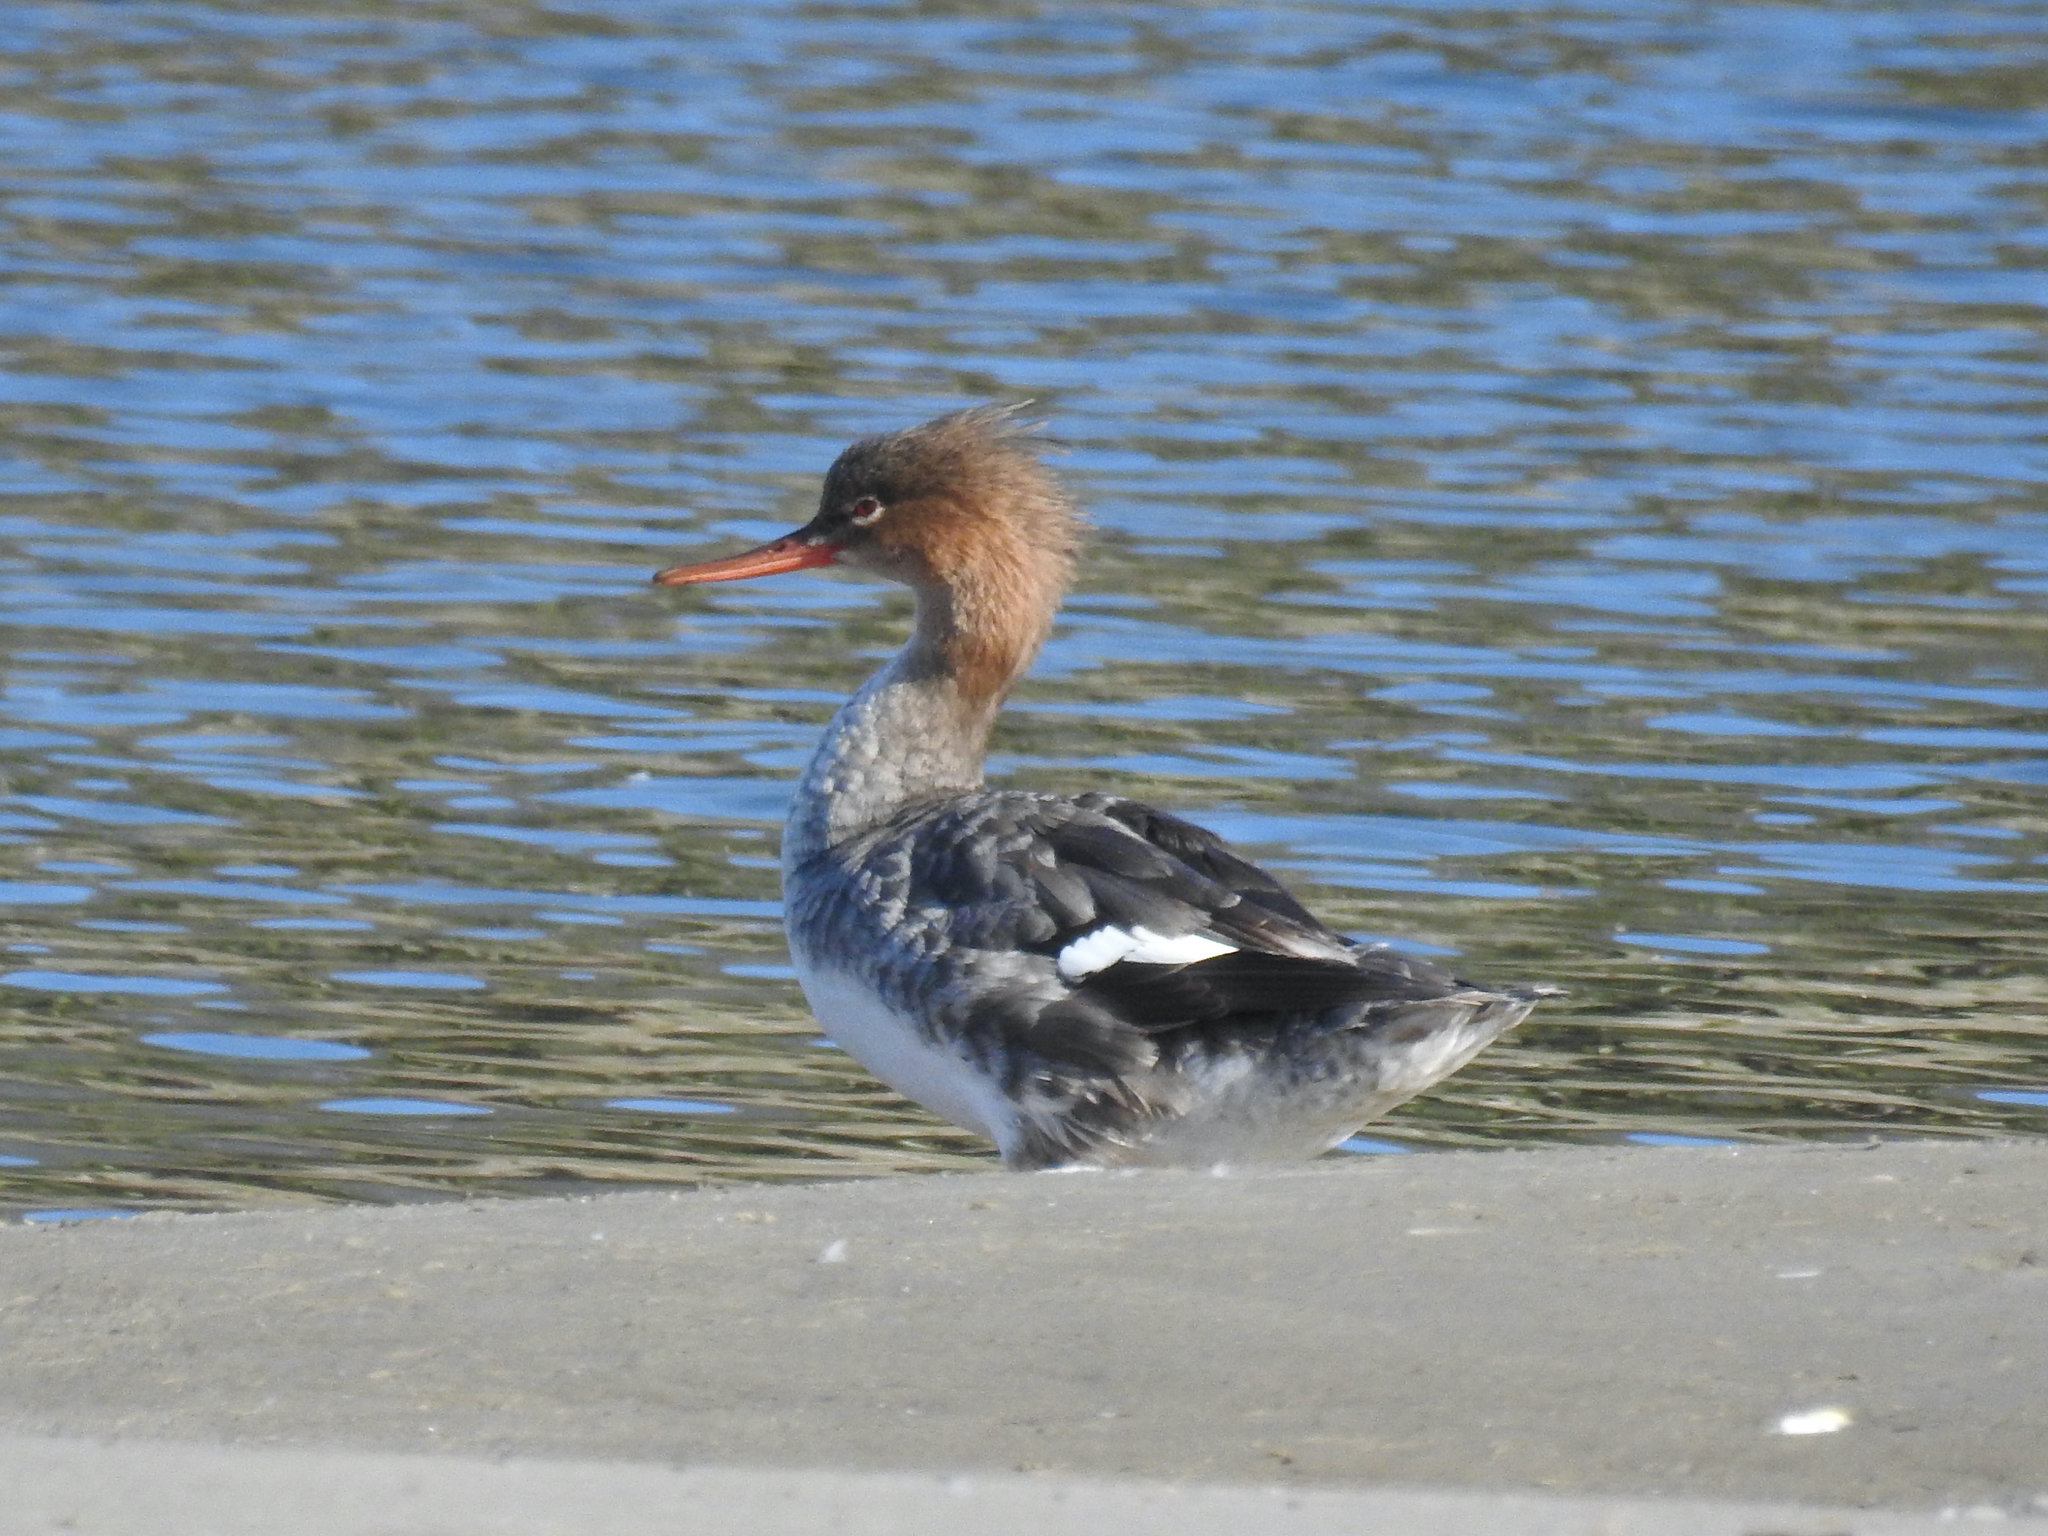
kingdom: Animalia
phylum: Chordata
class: Aves
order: Anseriformes
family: Anatidae
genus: Mergus
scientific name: Mergus serrator
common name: Red-breasted merganser
